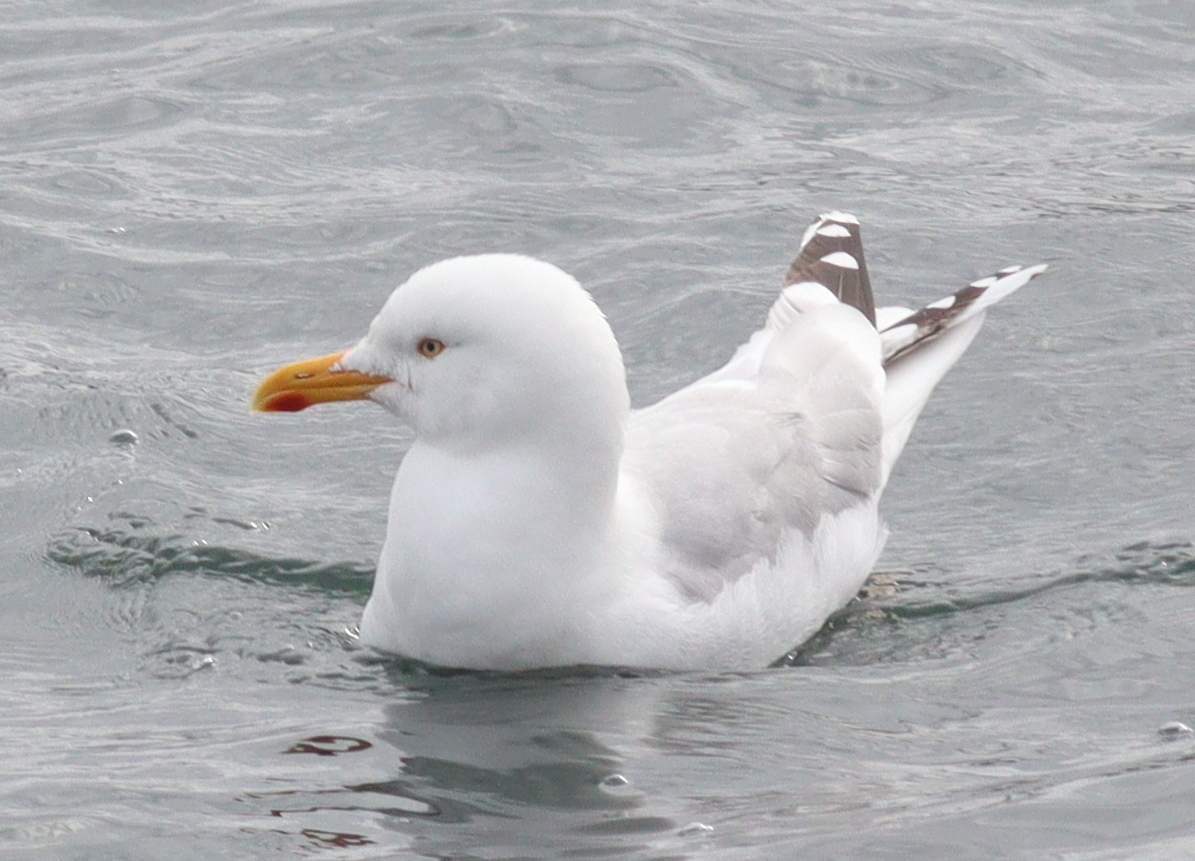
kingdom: Animalia
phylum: Chordata
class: Aves
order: Charadriiformes
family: Laridae
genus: Larus
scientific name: Larus argentatus
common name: Herring gull
